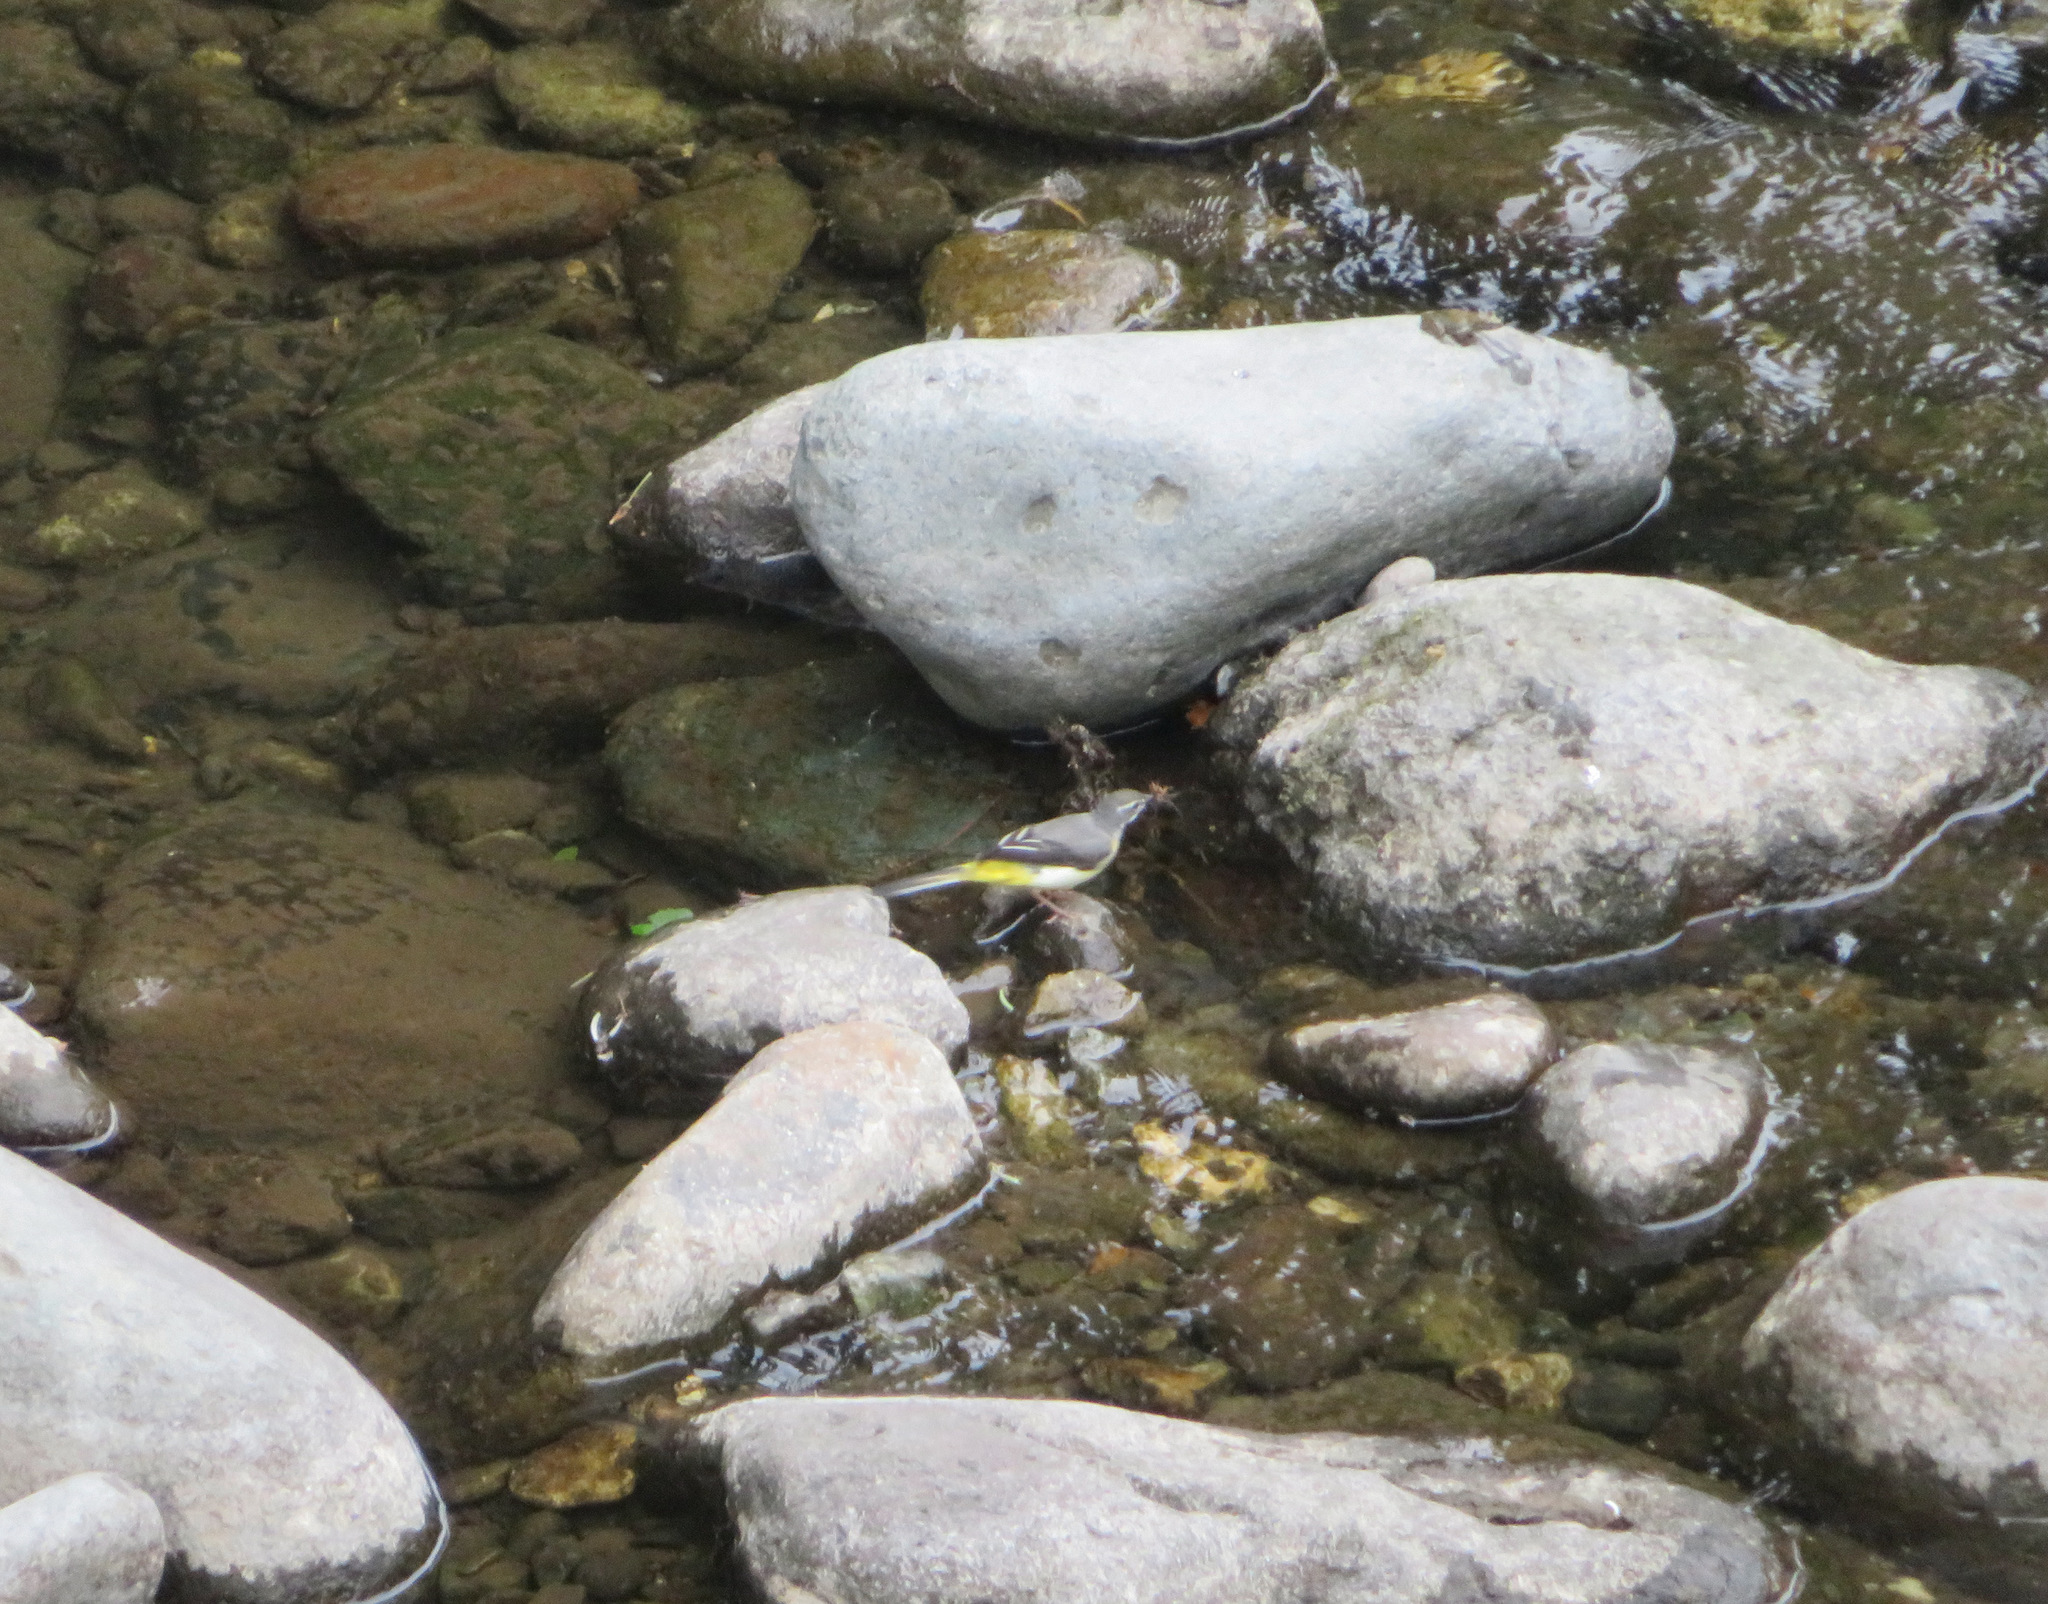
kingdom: Animalia
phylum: Chordata
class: Aves
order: Passeriformes
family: Motacillidae
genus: Motacilla
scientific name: Motacilla cinerea
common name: Grey wagtail
